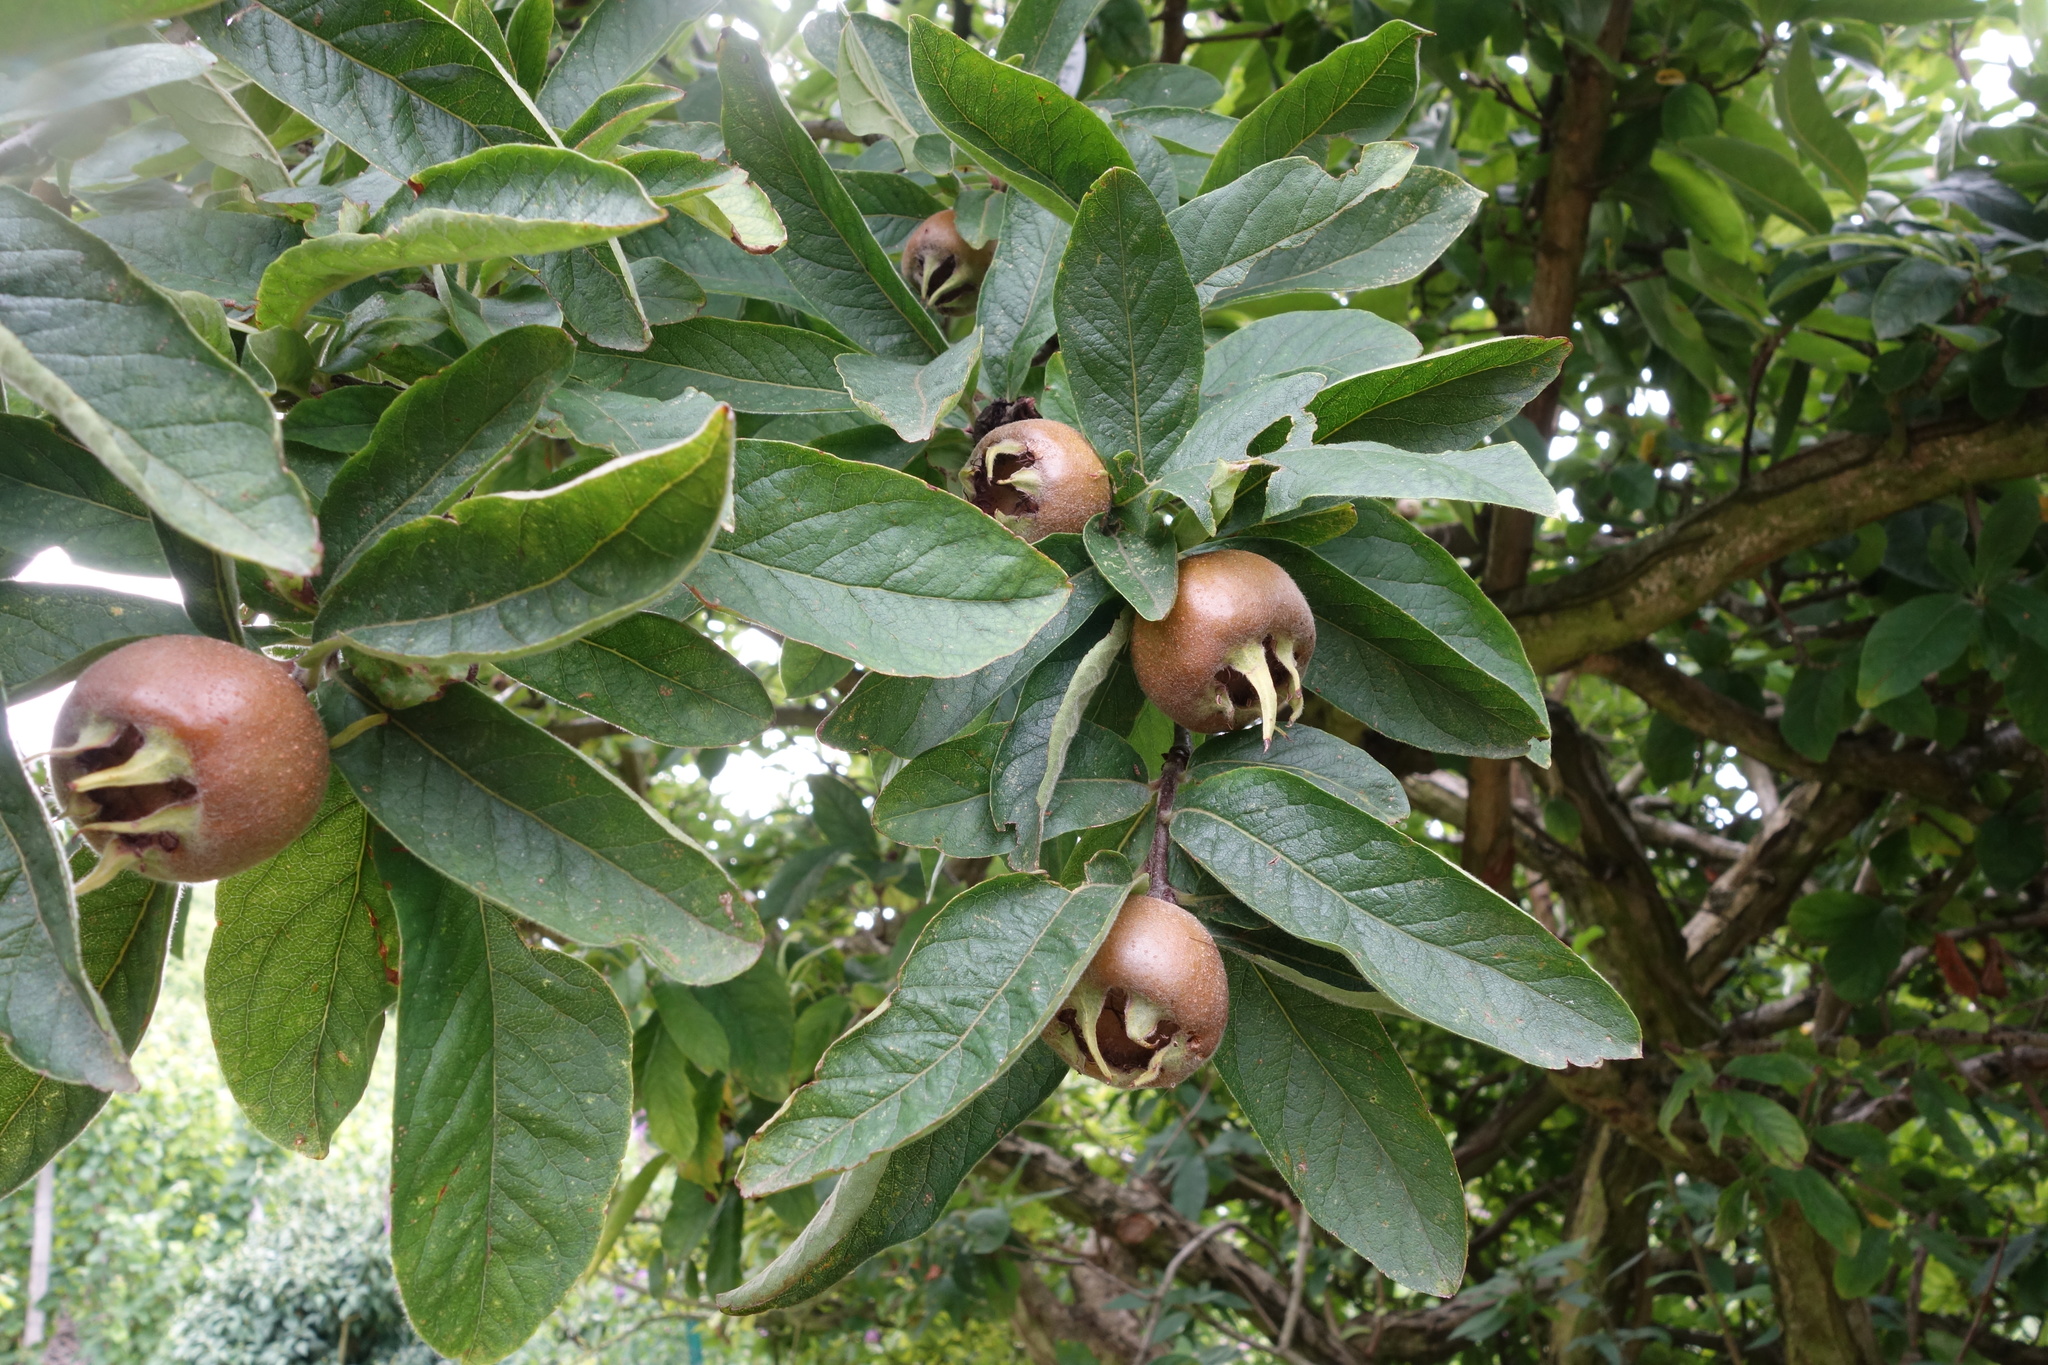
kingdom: Plantae
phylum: Tracheophyta
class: Magnoliopsida
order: Rosales
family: Rosaceae
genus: Mespilus
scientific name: Mespilus germanica
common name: Medlar
